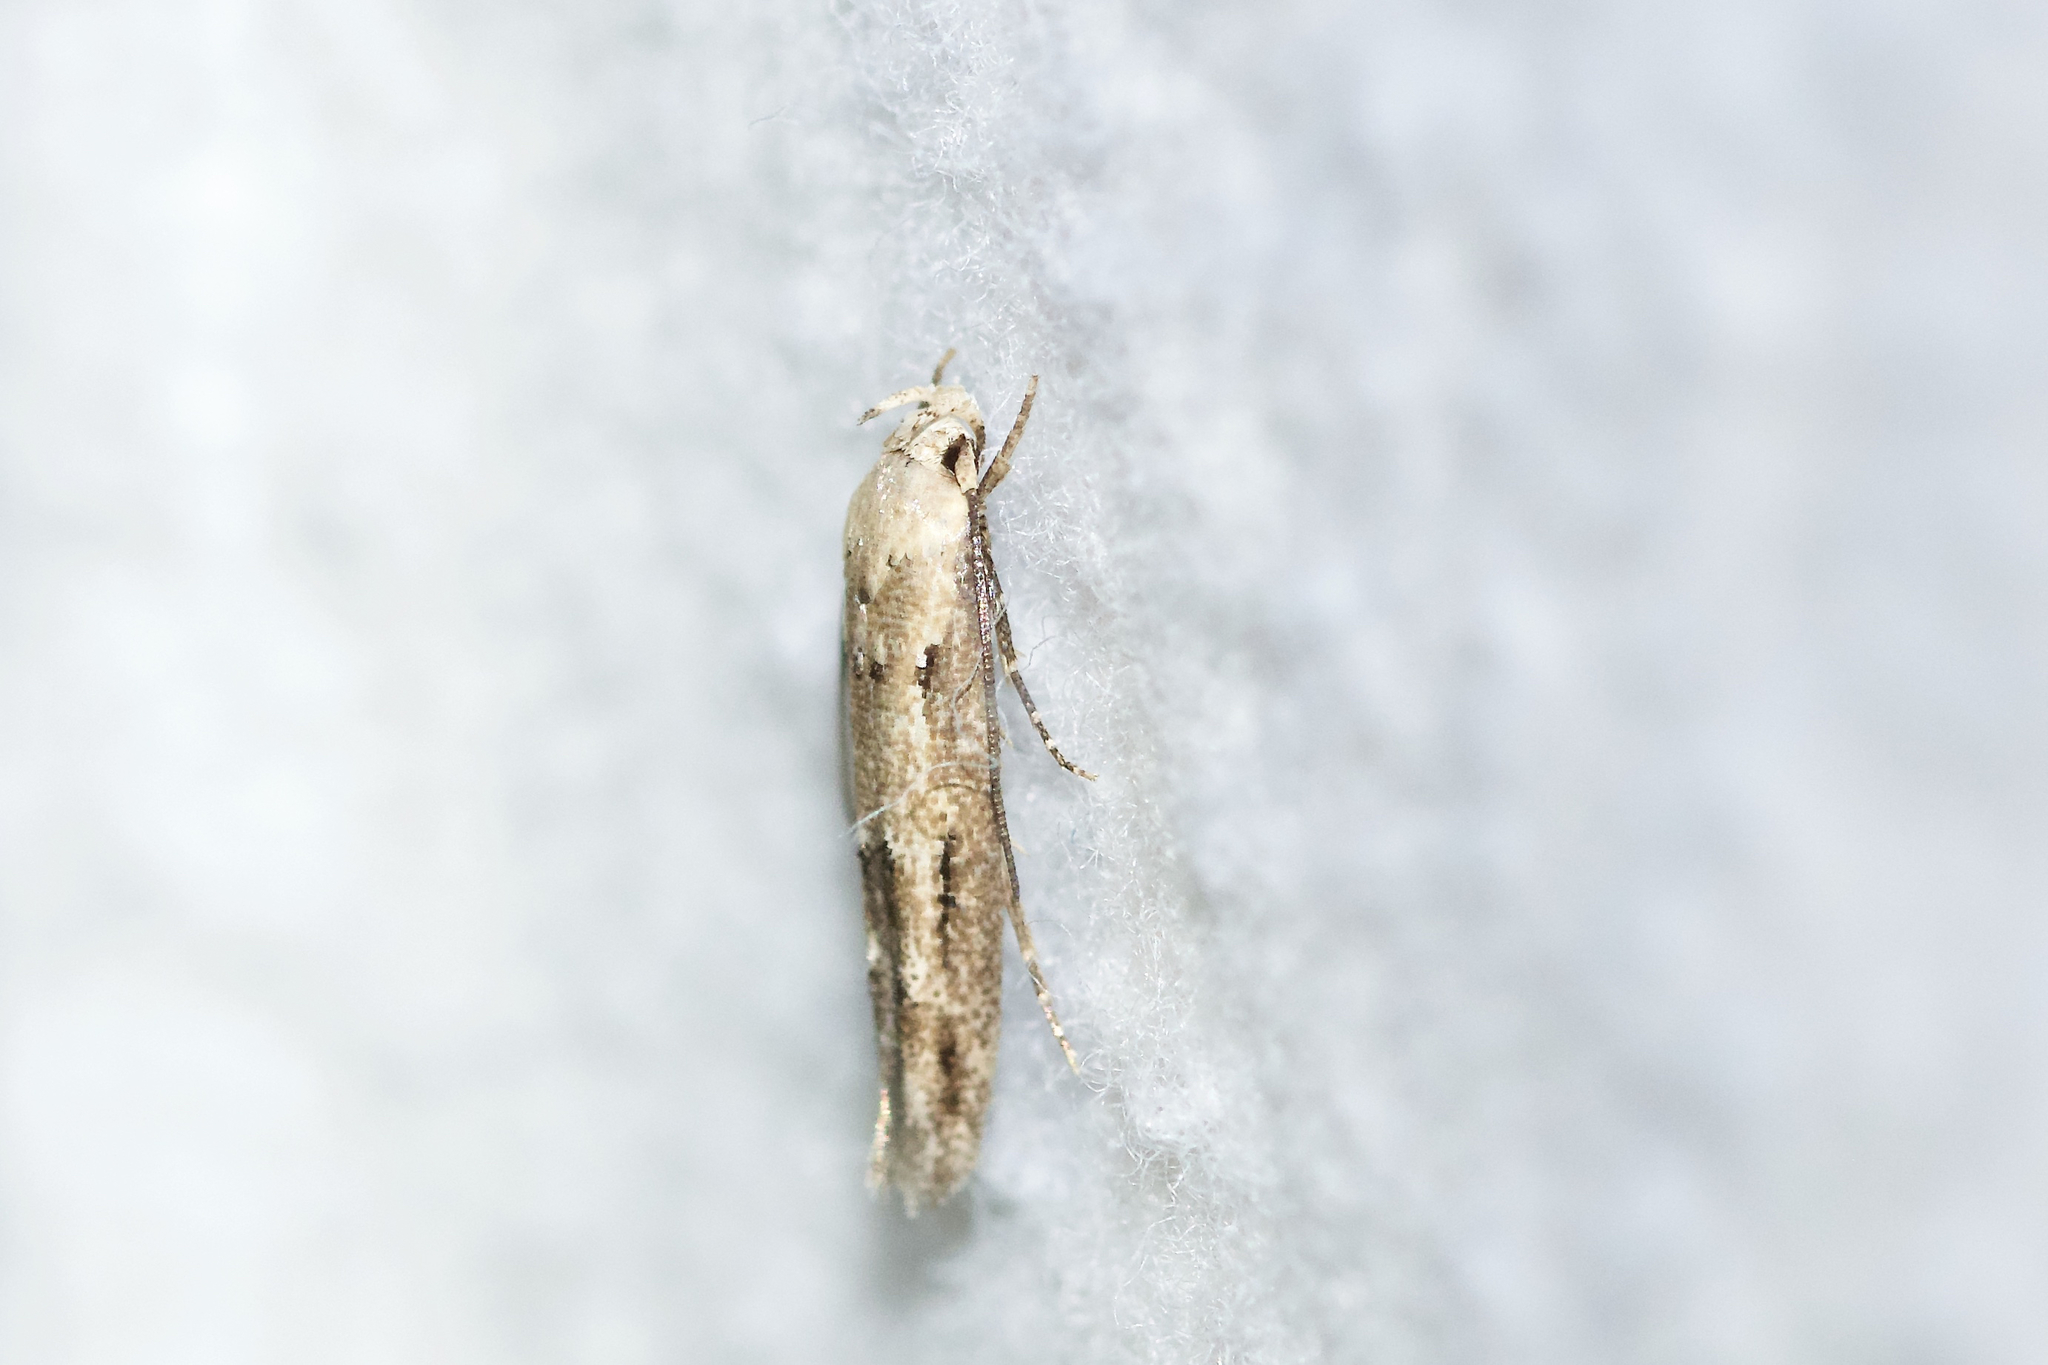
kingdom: Animalia
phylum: Arthropoda
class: Insecta
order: Lepidoptera
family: Momphidae
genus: Mompha
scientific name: Mompha brevivittella
